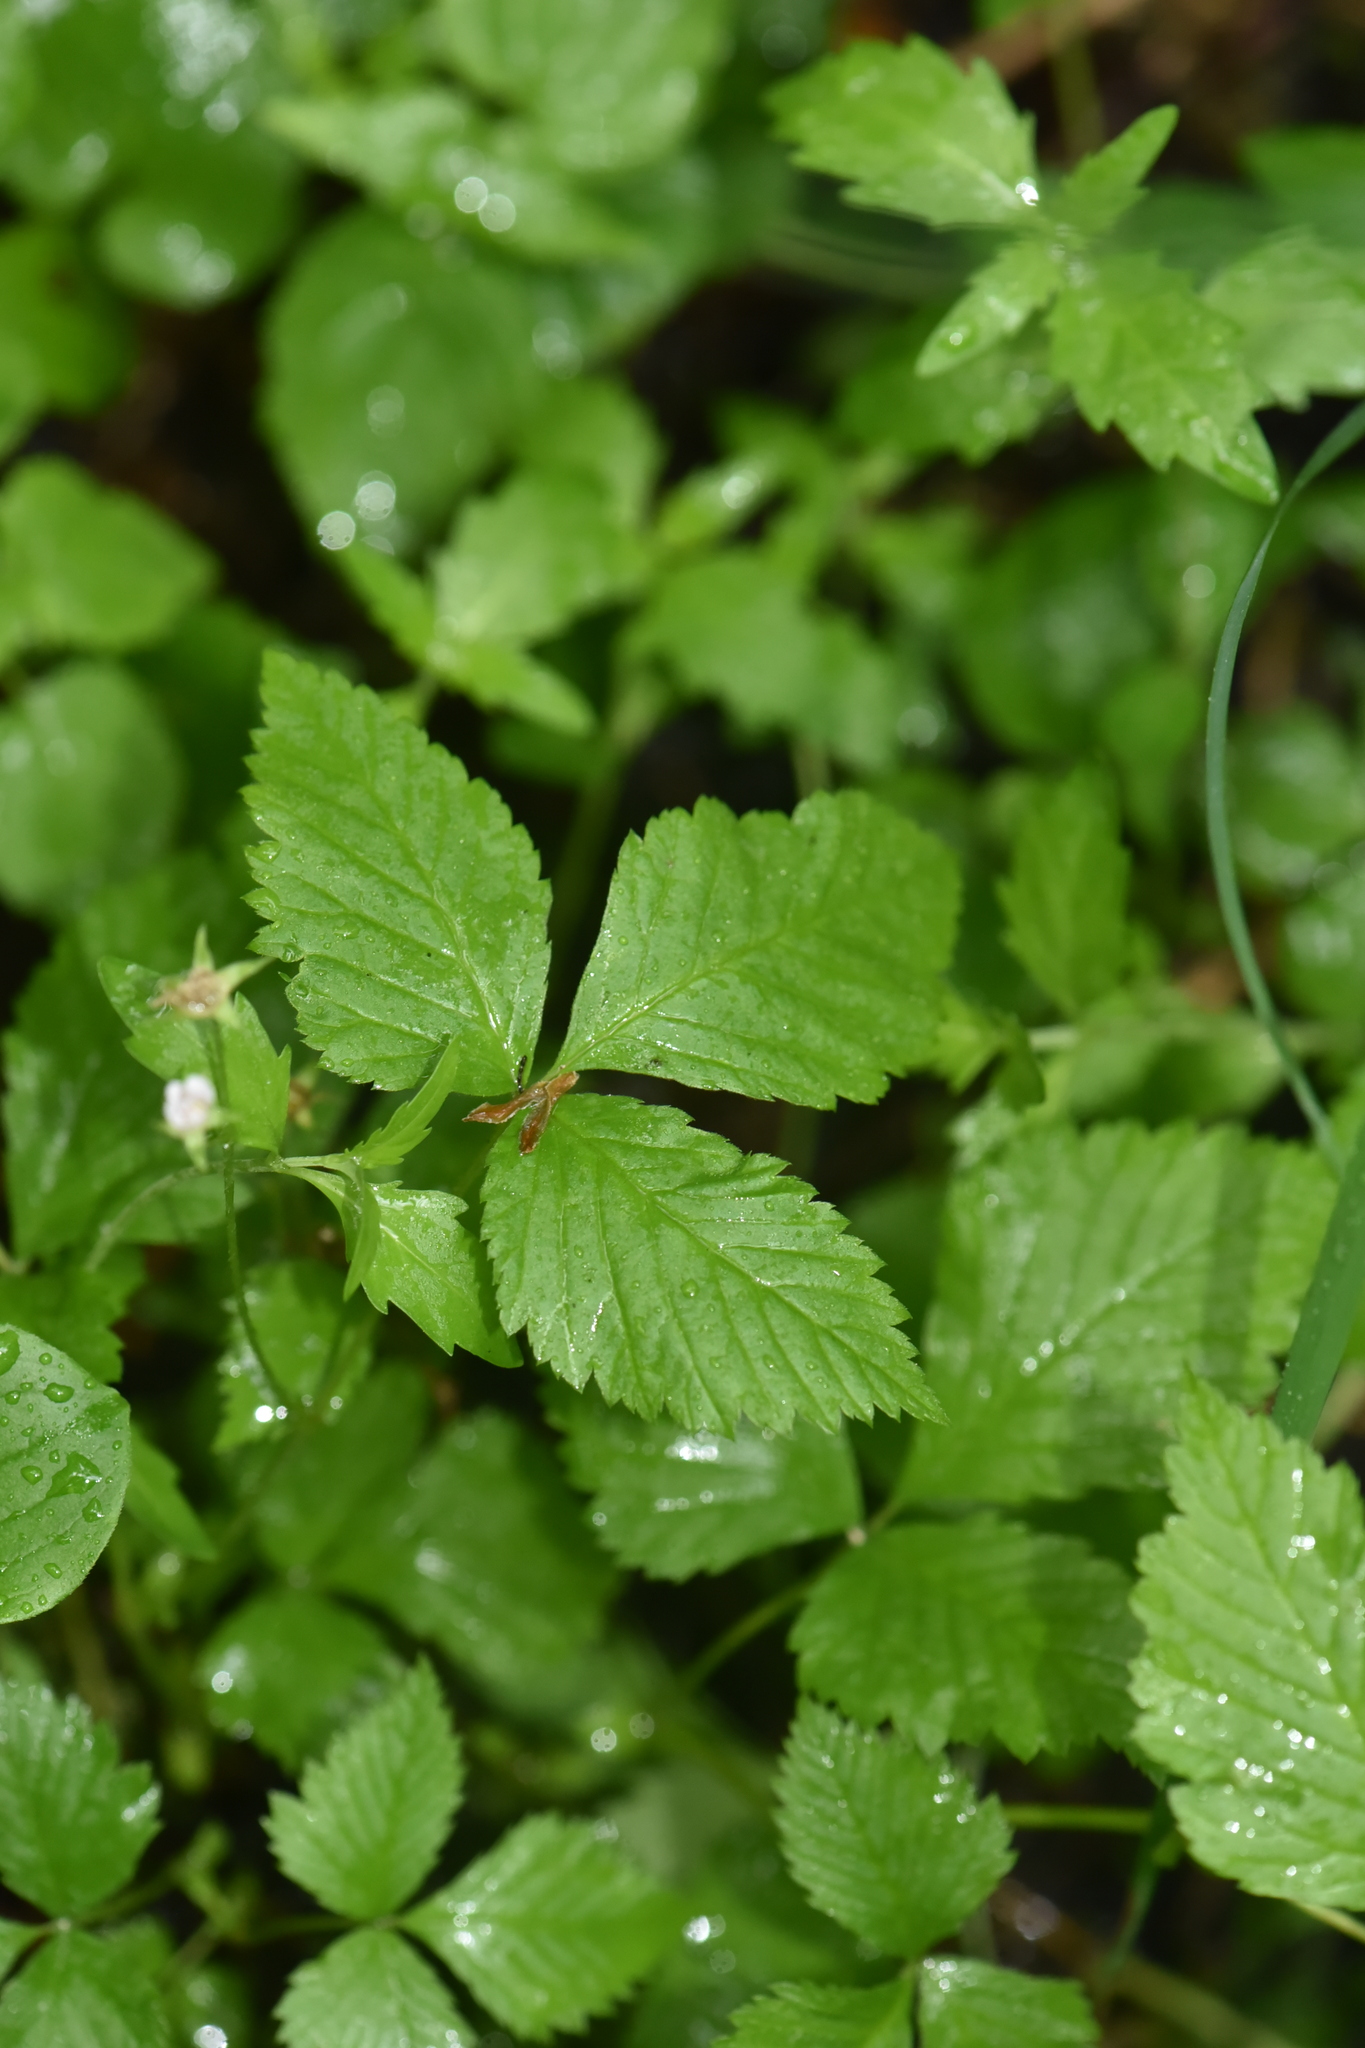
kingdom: Plantae
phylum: Tracheophyta
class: Magnoliopsida
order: Rosales
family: Rosaceae
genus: Rubus
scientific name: Rubus pubescens
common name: Dwarf raspberry
